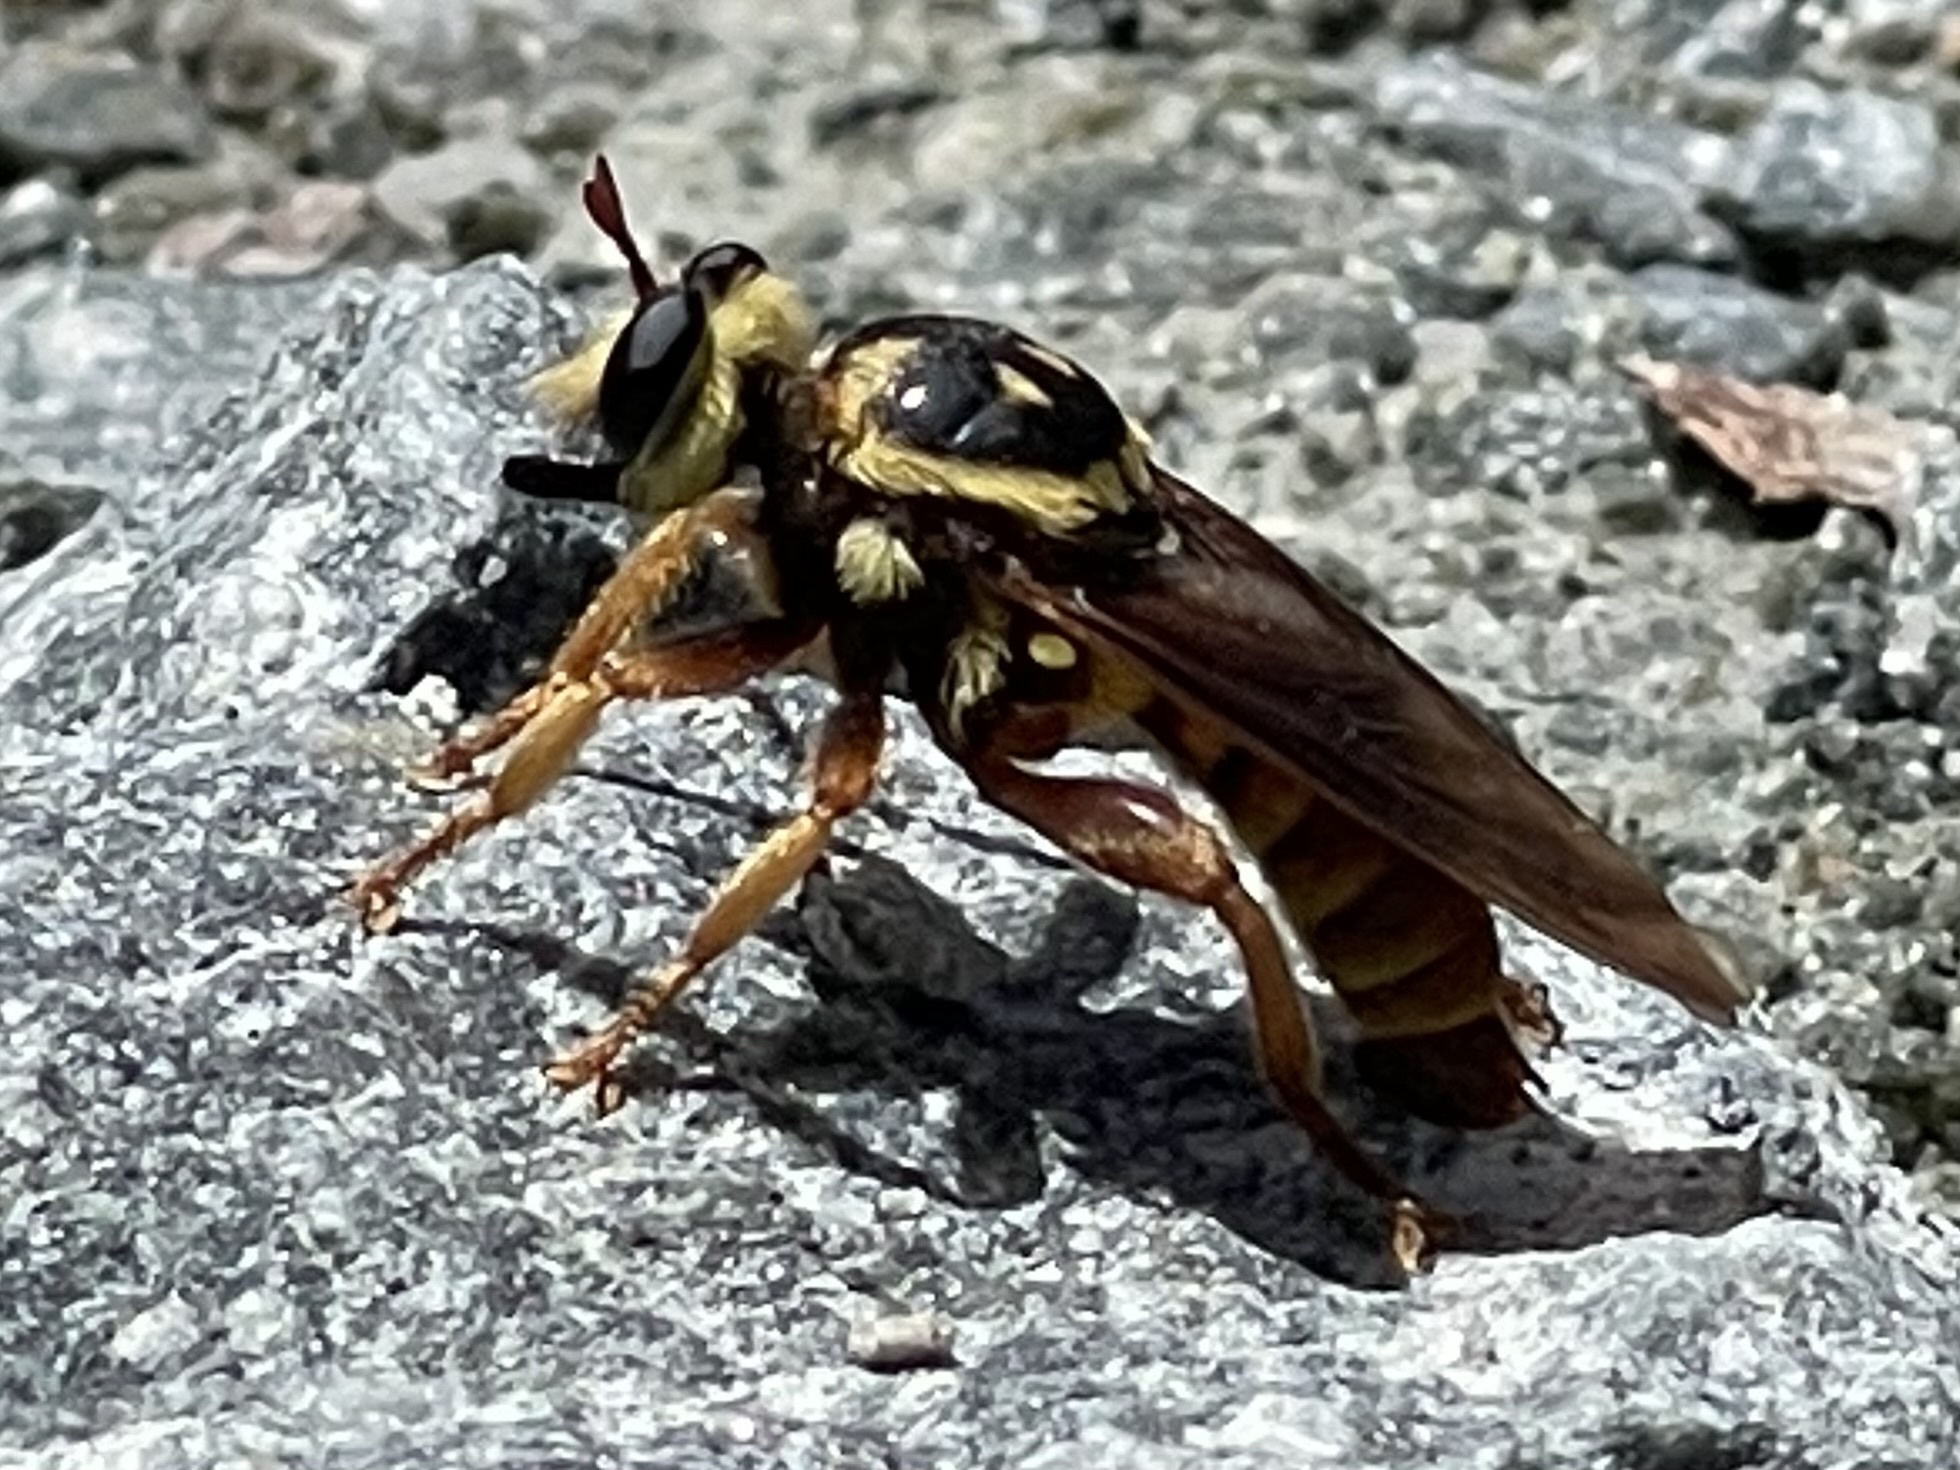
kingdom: Animalia
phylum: Arthropoda
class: Insecta
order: Diptera
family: Asilidae
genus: Laphria
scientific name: Laphria saffrana
